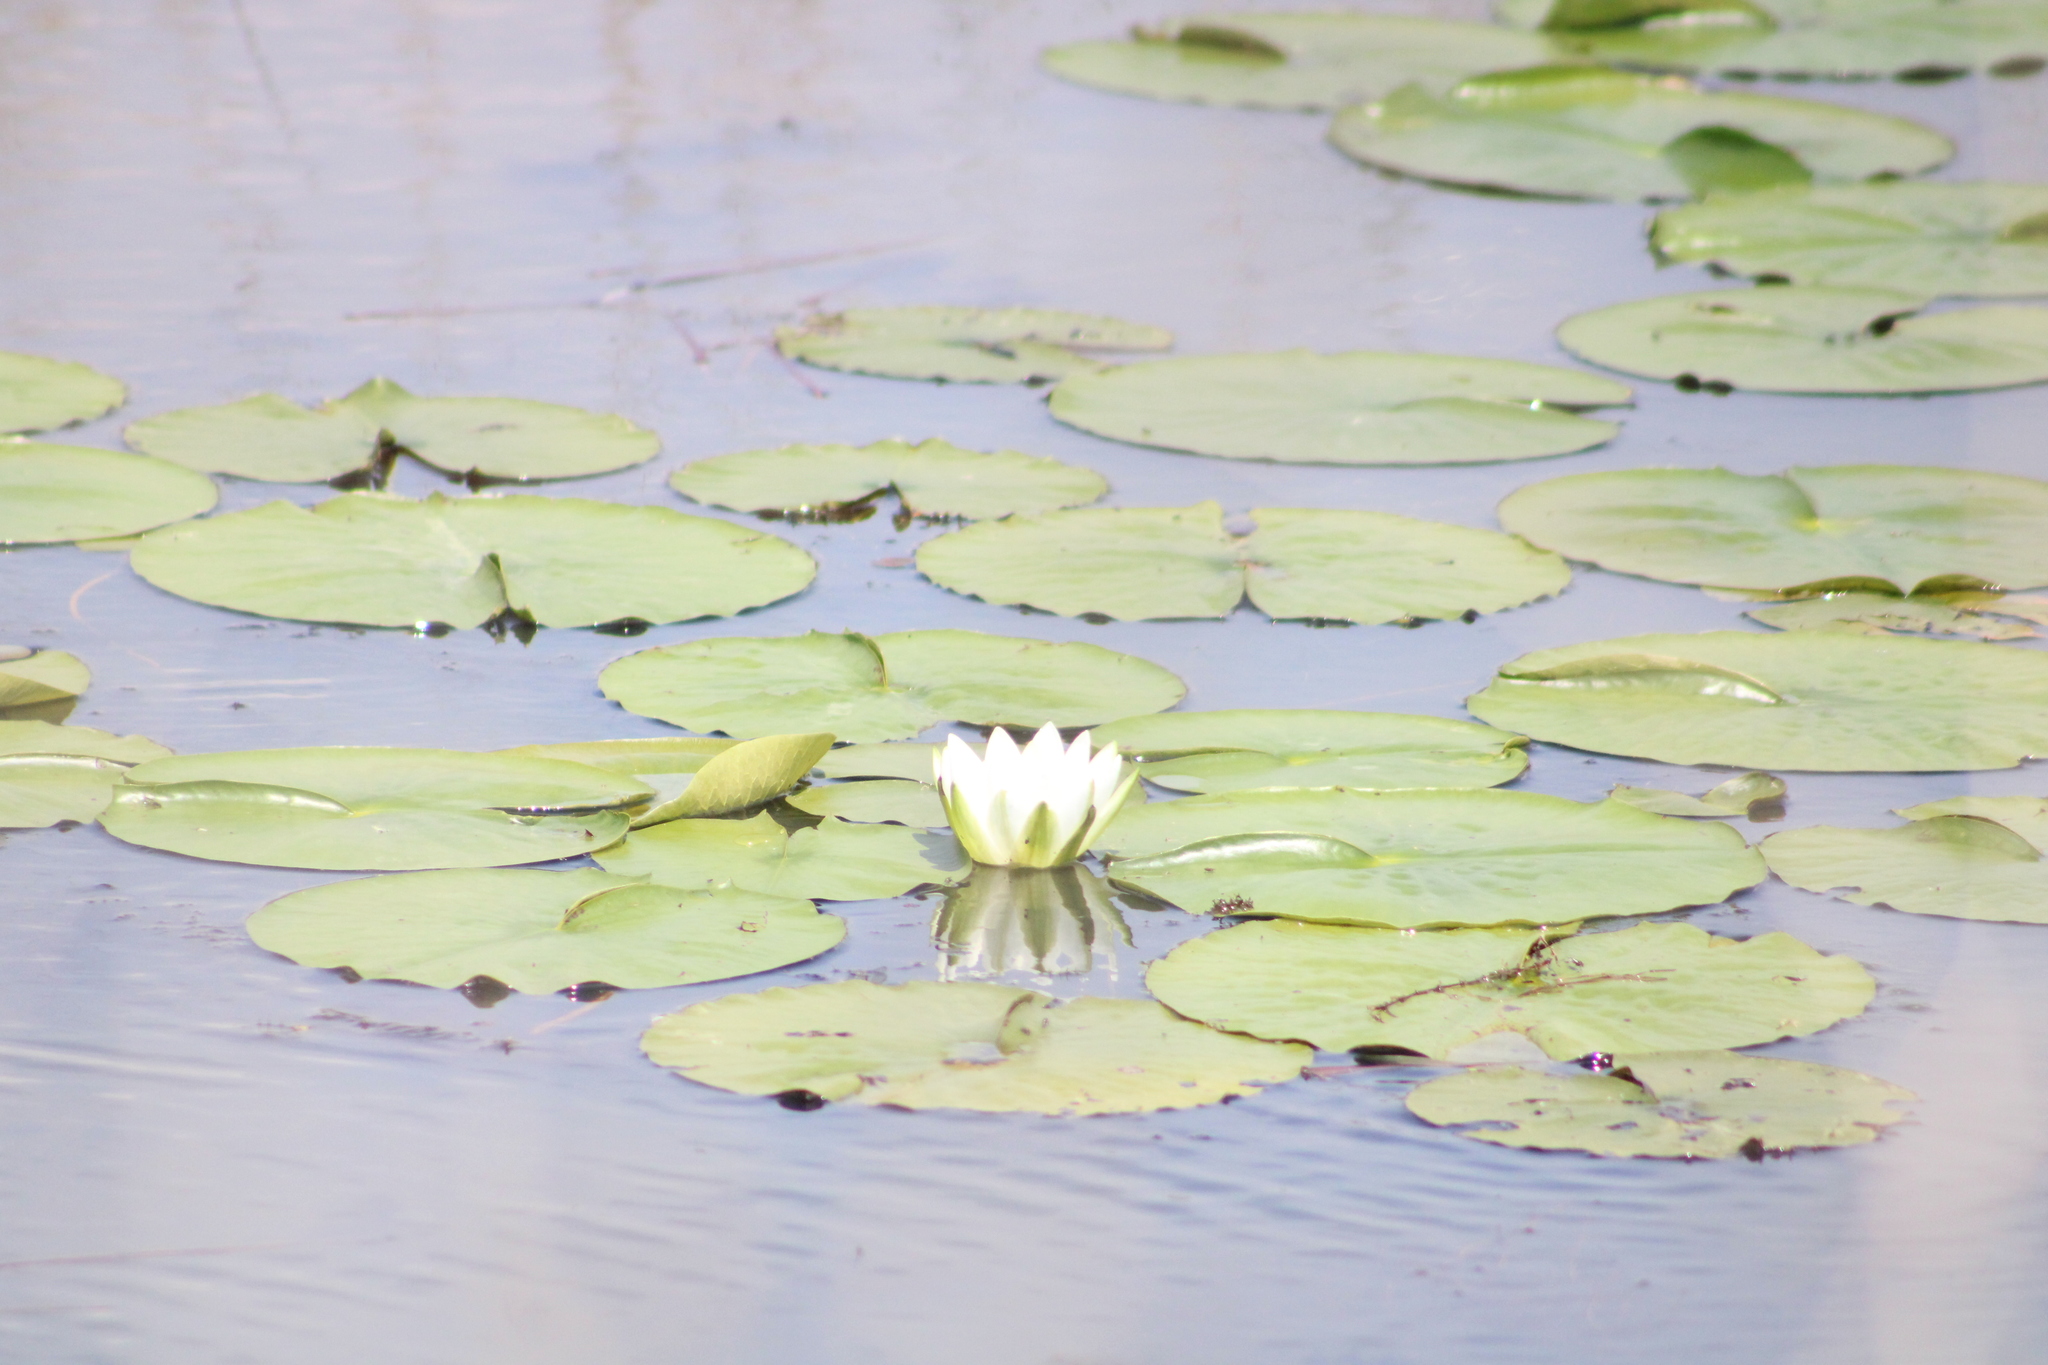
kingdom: Plantae
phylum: Tracheophyta
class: Magnoliopsida
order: Nymphaeales
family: Nymphaeaceae
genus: Nymphaea
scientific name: Nymphaea odorata
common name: Fragrant water-lily
